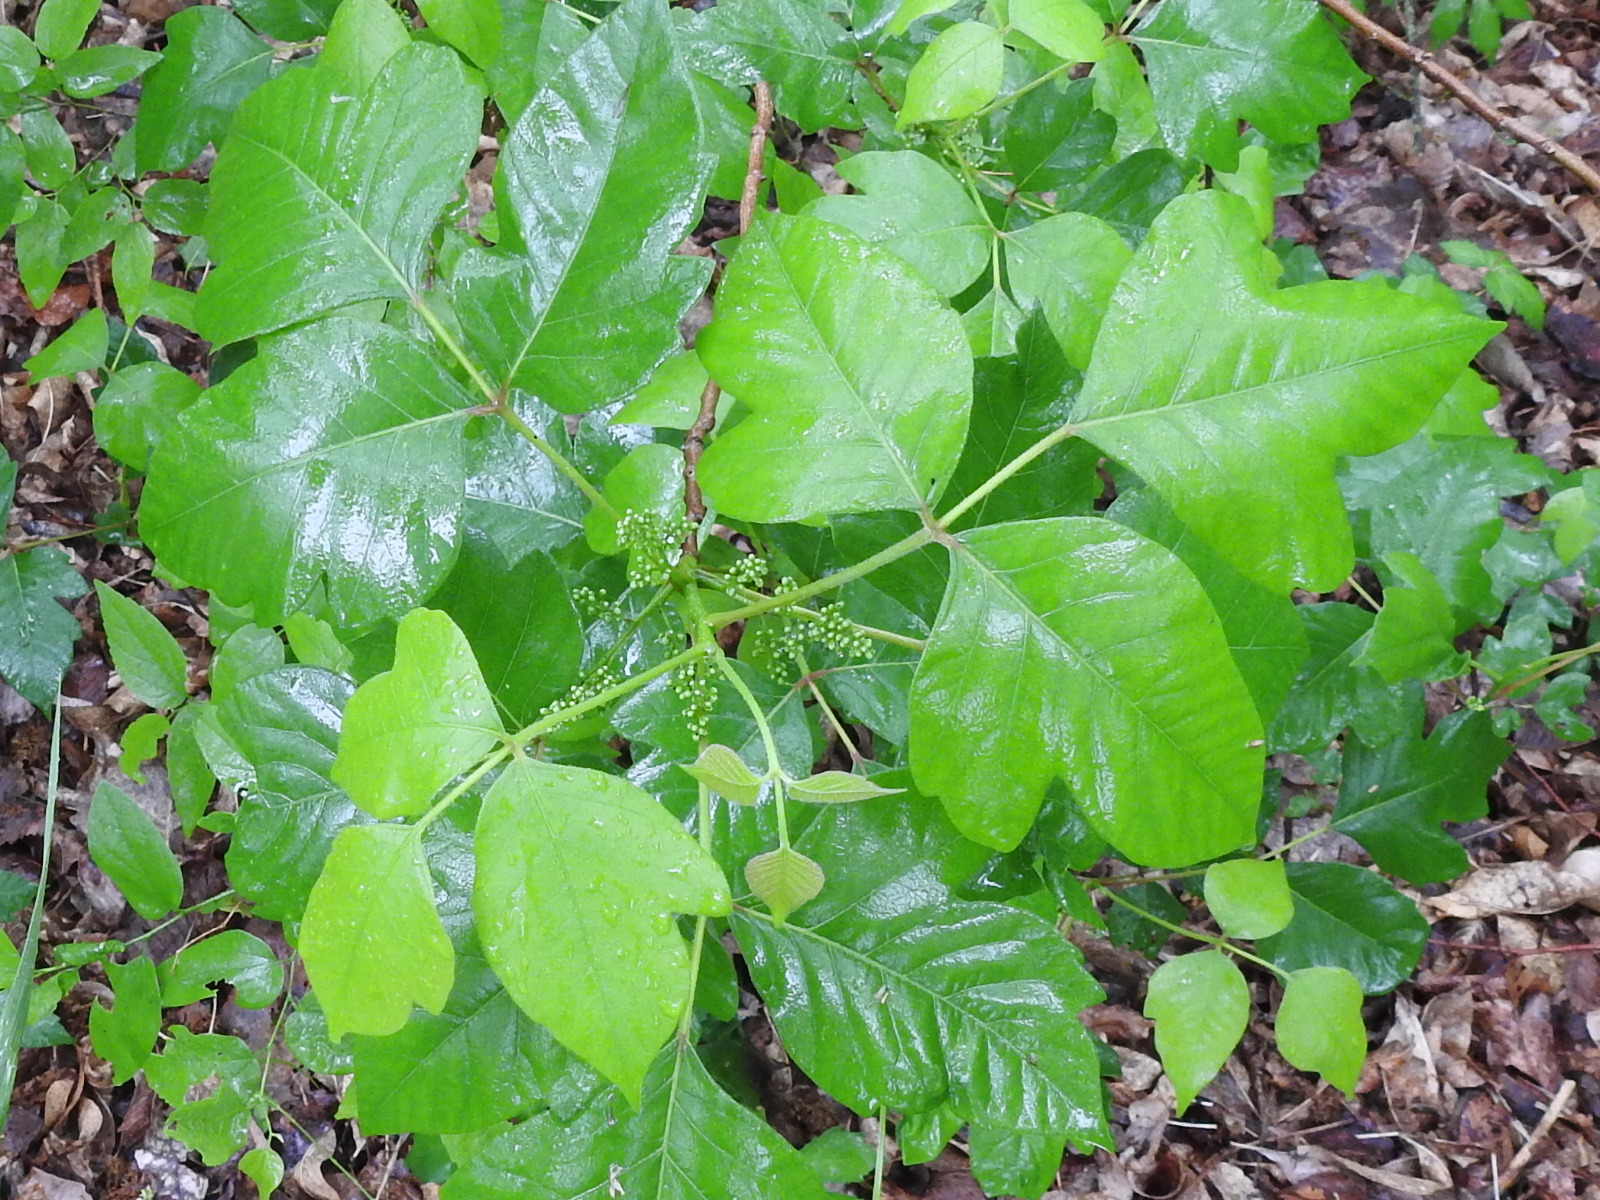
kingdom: Plantae
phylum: Tracheophyta
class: Magnoliopsida
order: Sapindales
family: Anacardiaceae
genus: Toxicodendron
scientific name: Toxicodendron radicans
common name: Poison ivy
